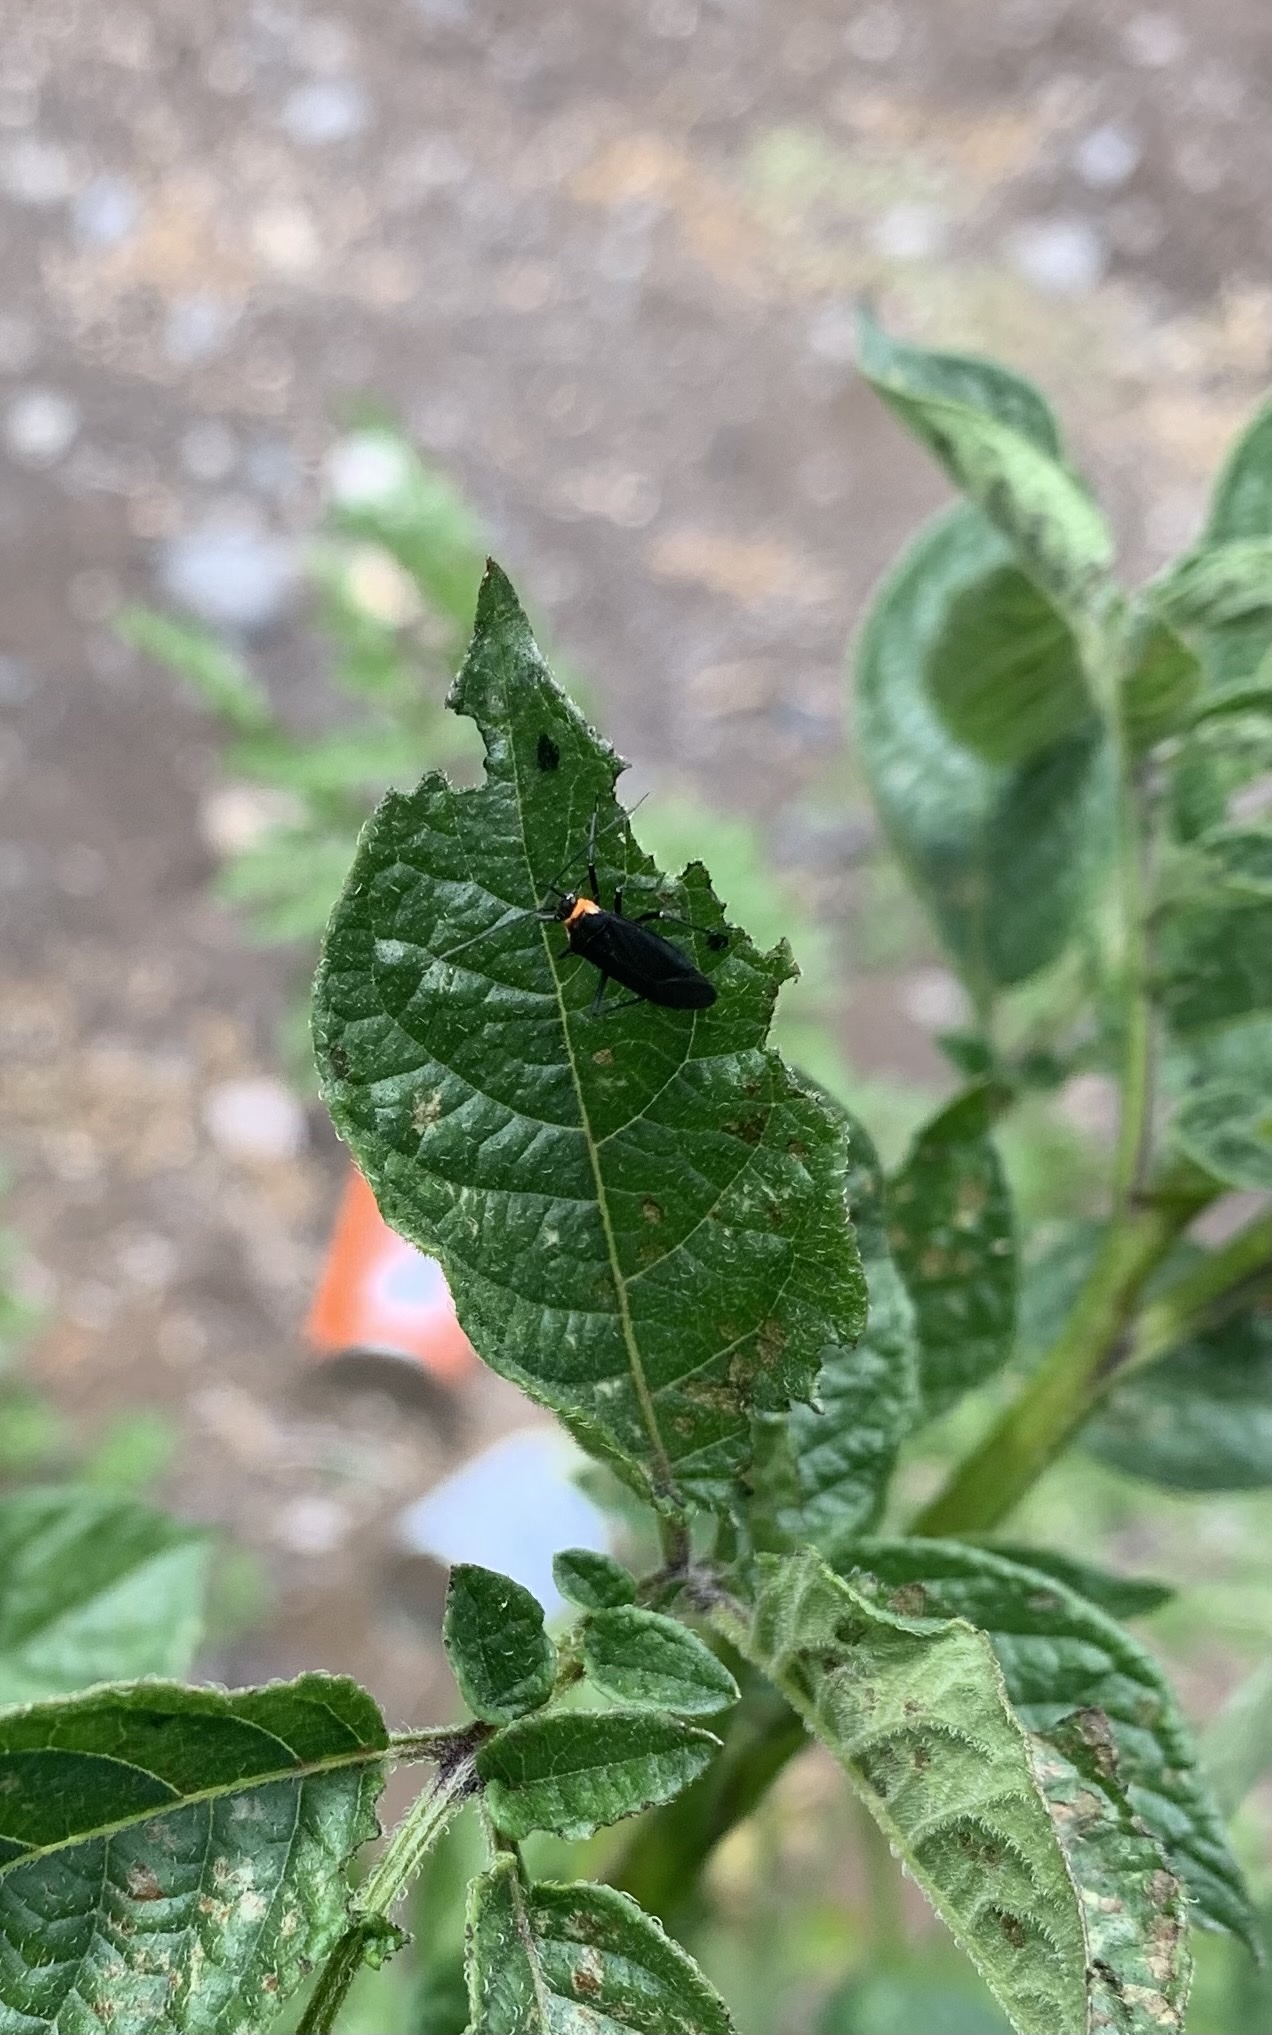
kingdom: Animalia
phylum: Arthropoda
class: Insecta
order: Hemiptera
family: Miridae
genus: Eurylomata
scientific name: Eurylomata picturata
